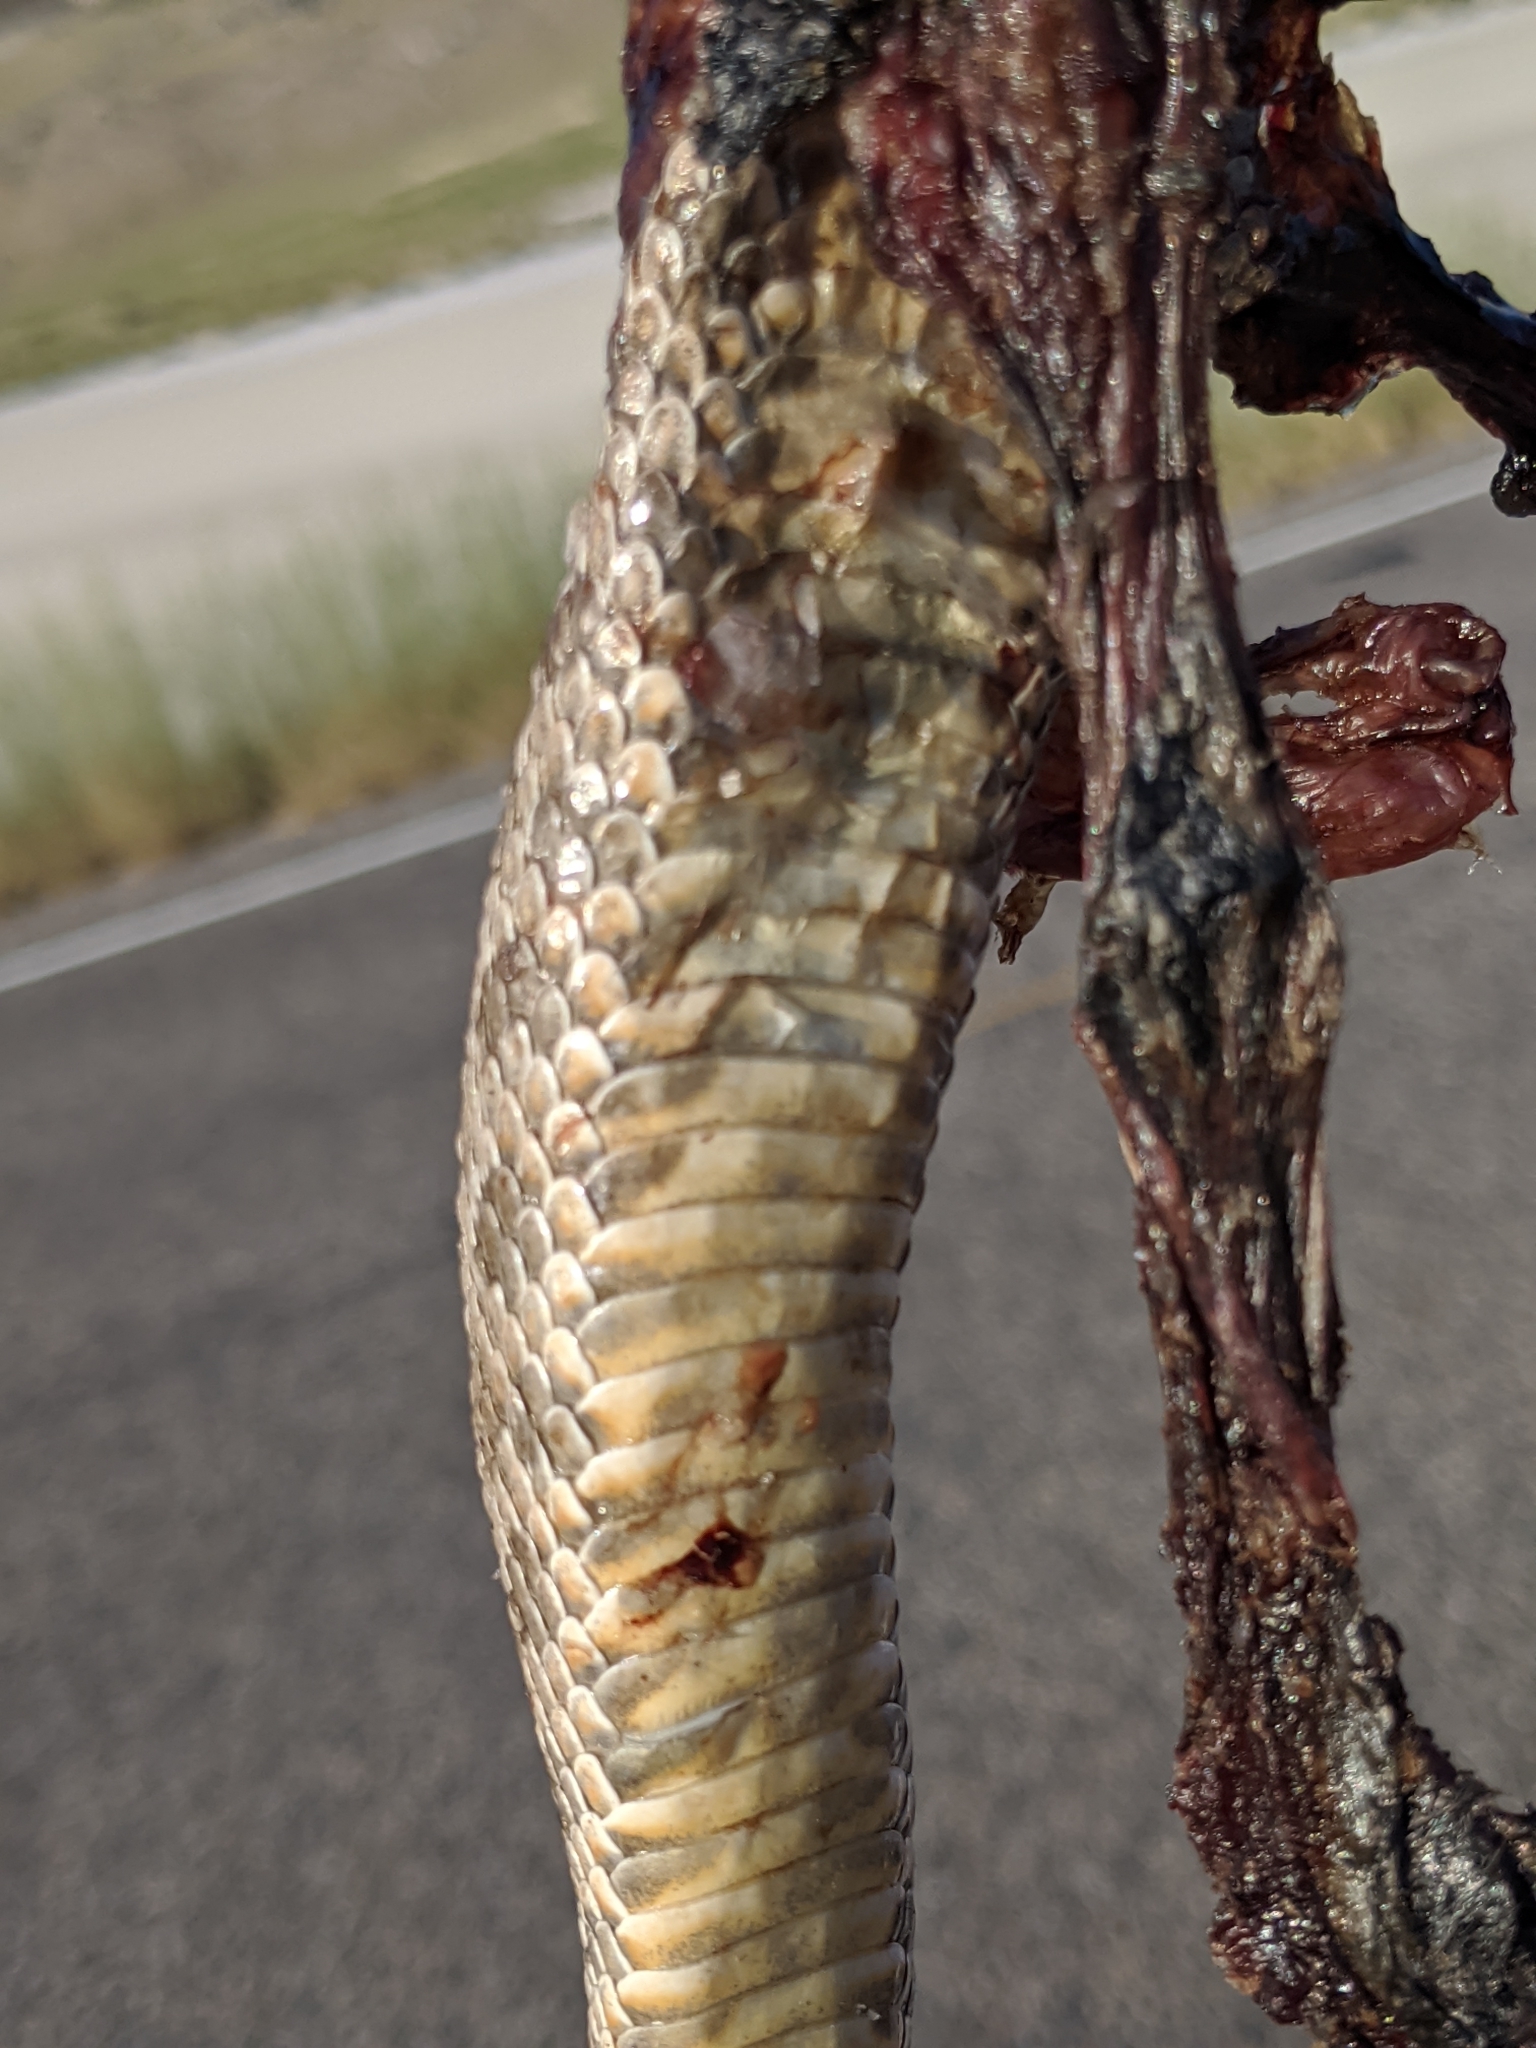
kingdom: Animalia
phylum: Chordata
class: Squamata
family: Viperidae
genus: Crotalus
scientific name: Crotalus oreganus
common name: Abyssus
